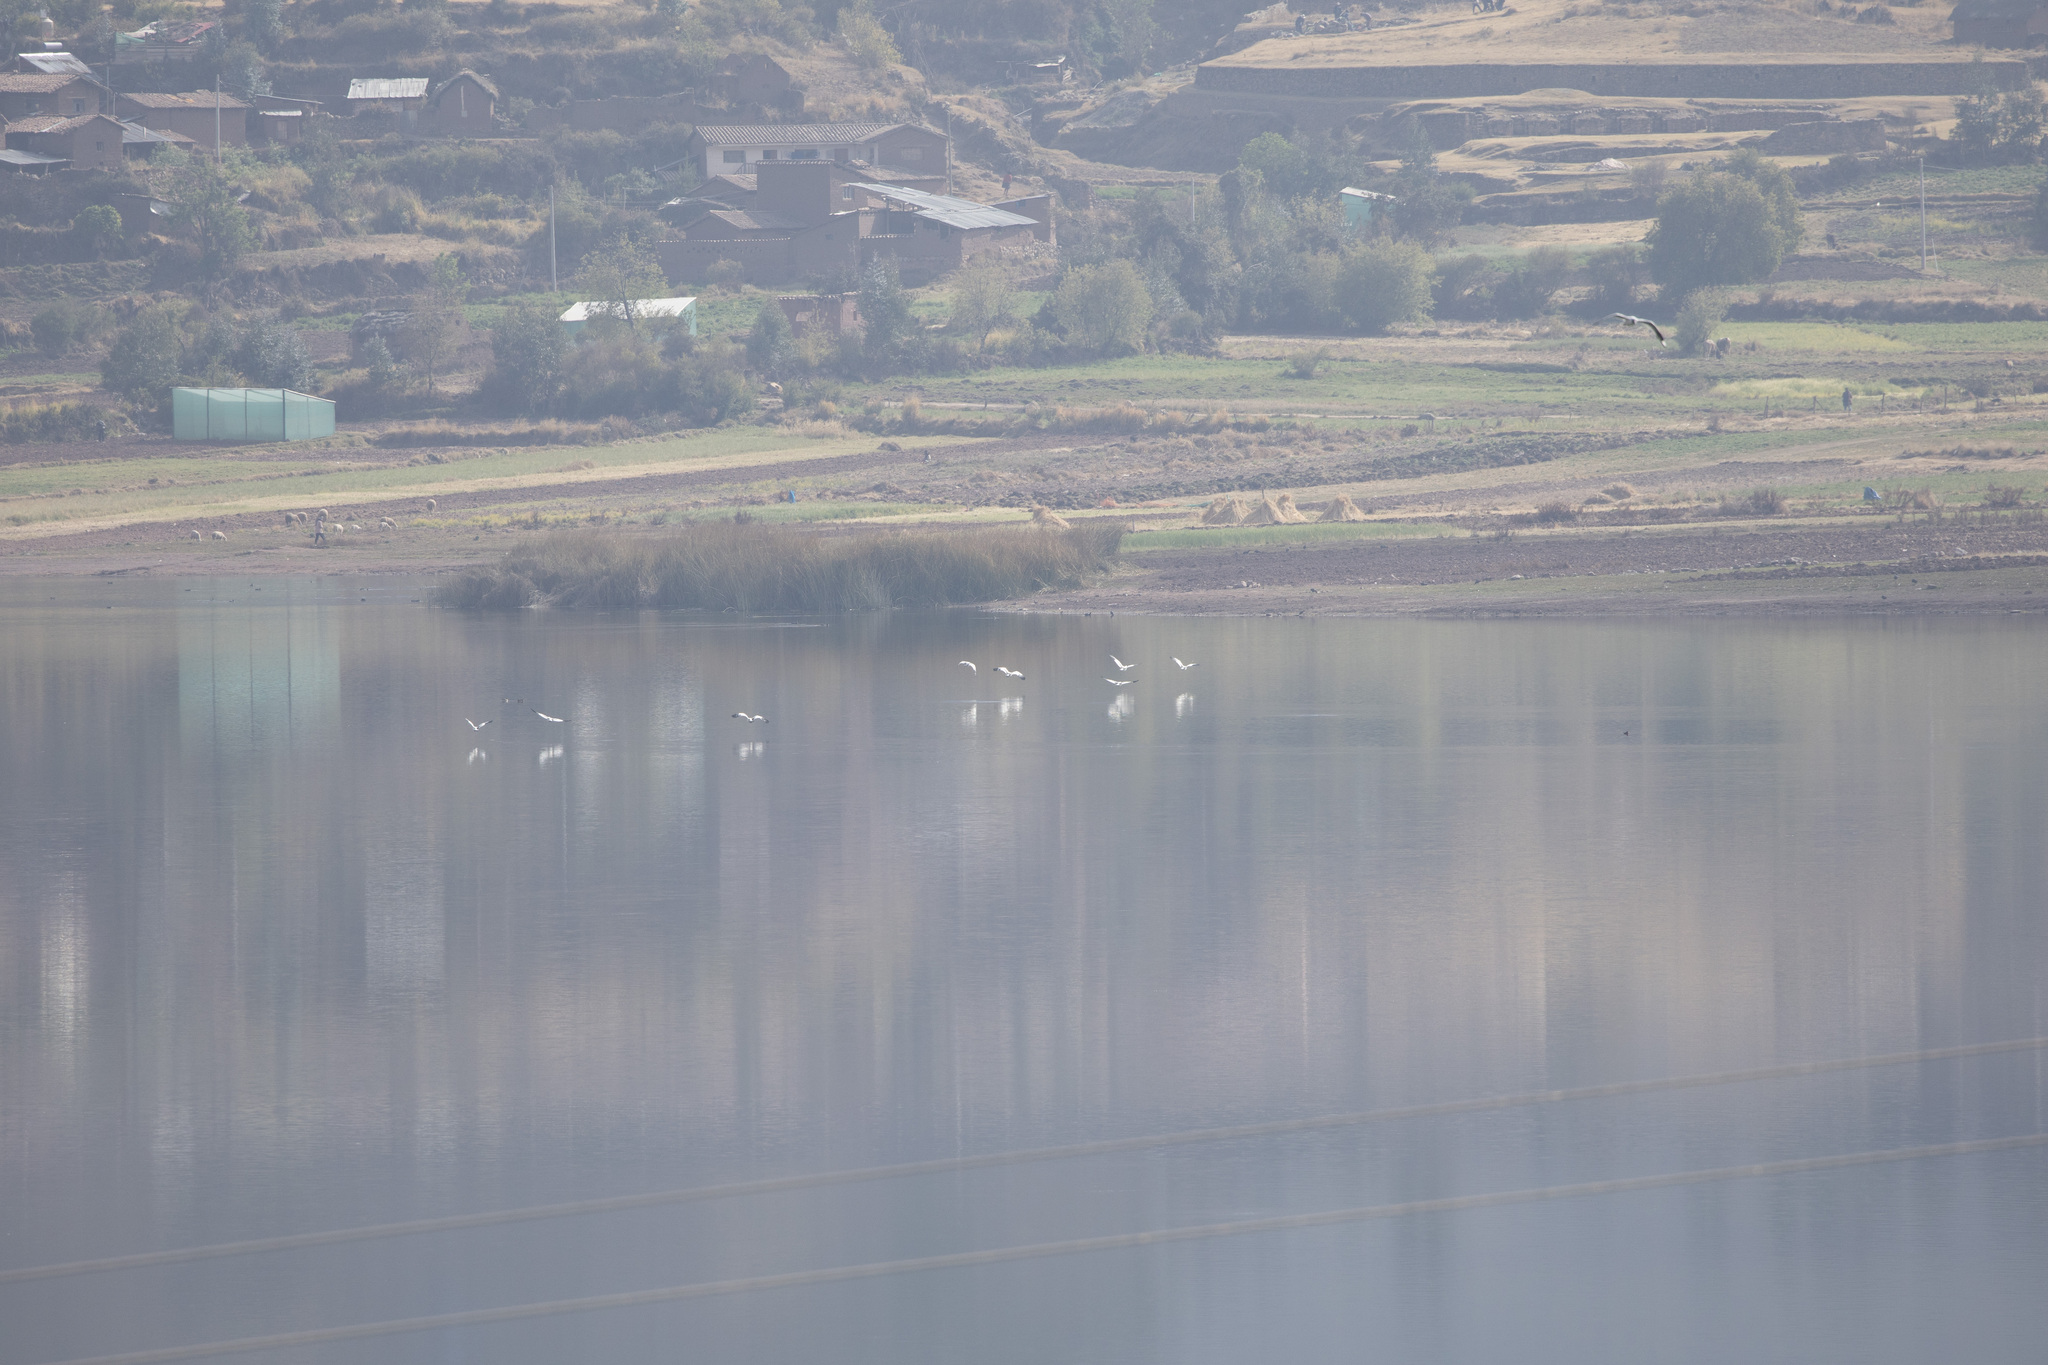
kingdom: Animalia
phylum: Chordata
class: Aves
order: Anseriformes
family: Anatidae
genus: Chloephaga
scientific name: Chloephaga melanoptera
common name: Andean goose
